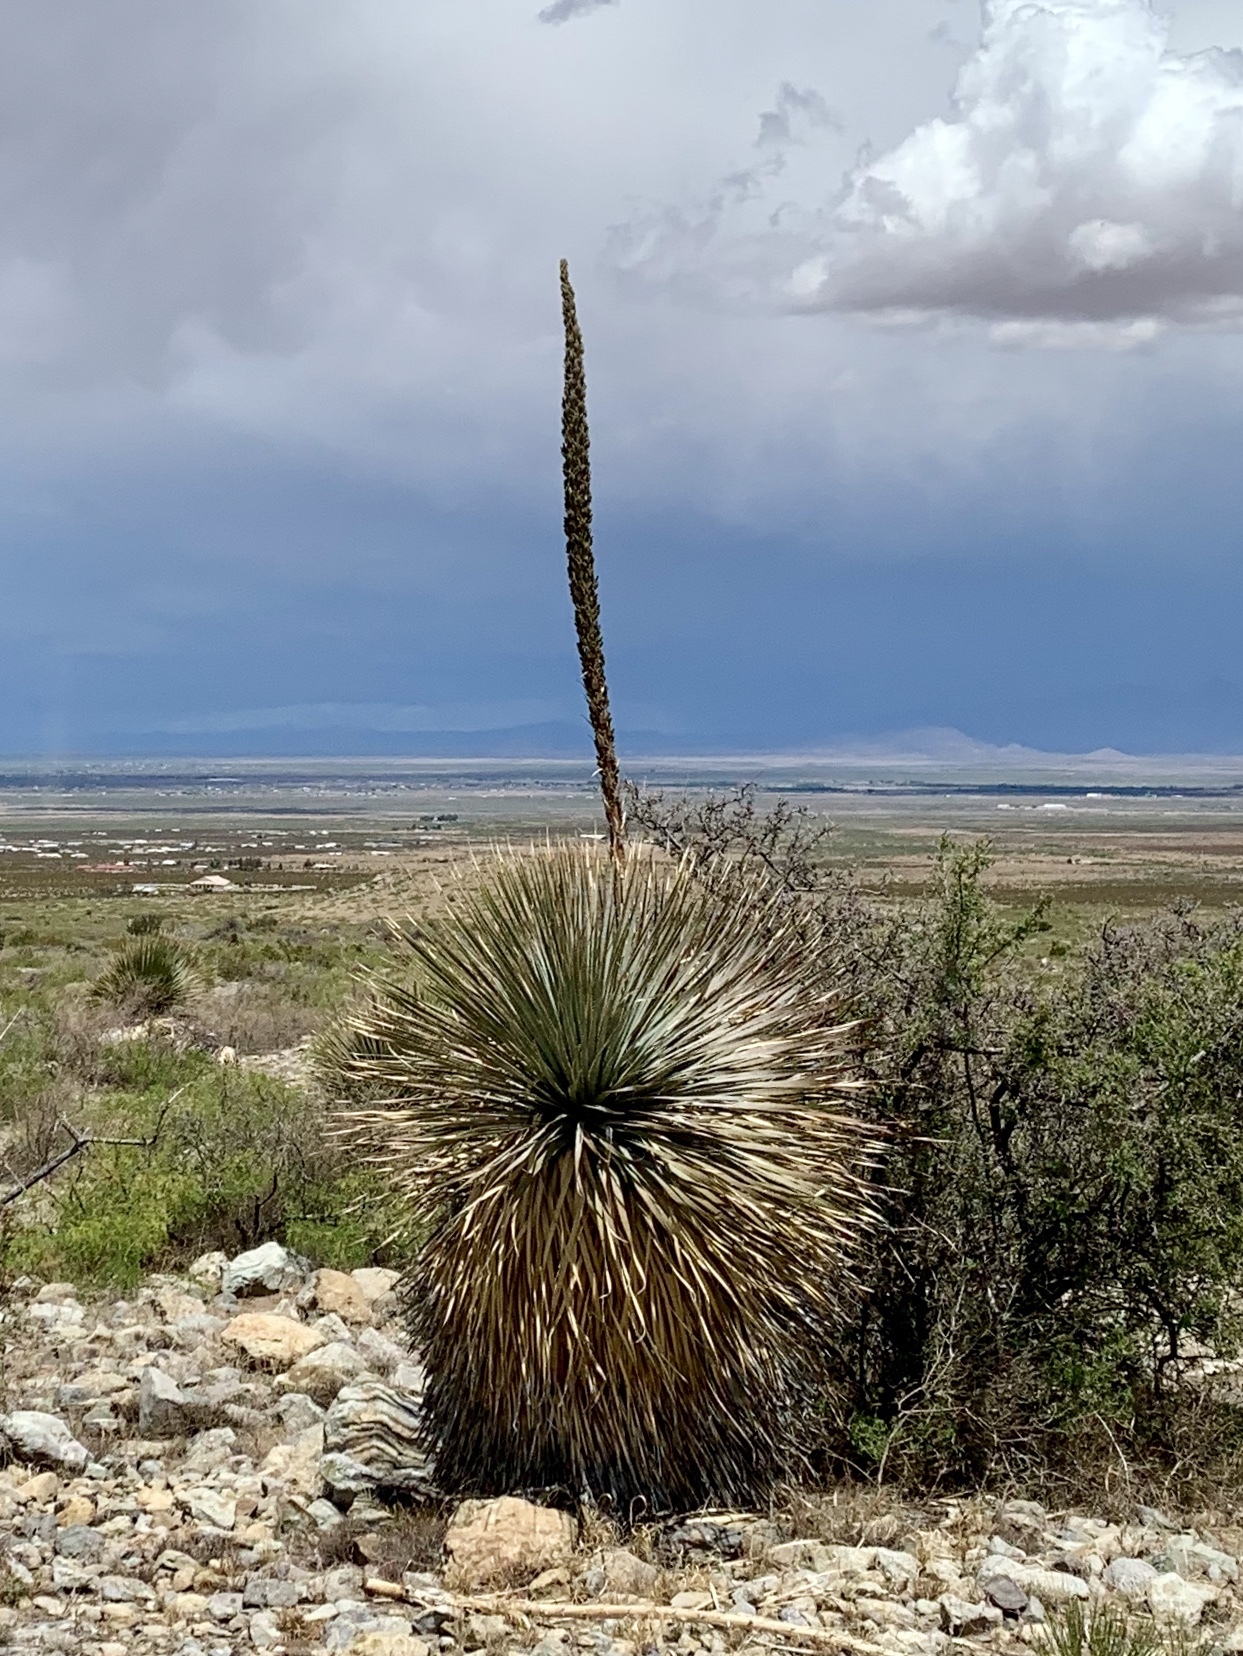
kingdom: Plantae
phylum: Tracheophyta
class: Liliopsida
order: Asparagales
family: Asparagaceae
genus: Dasylirion
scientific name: Dasylirion wheeleri
